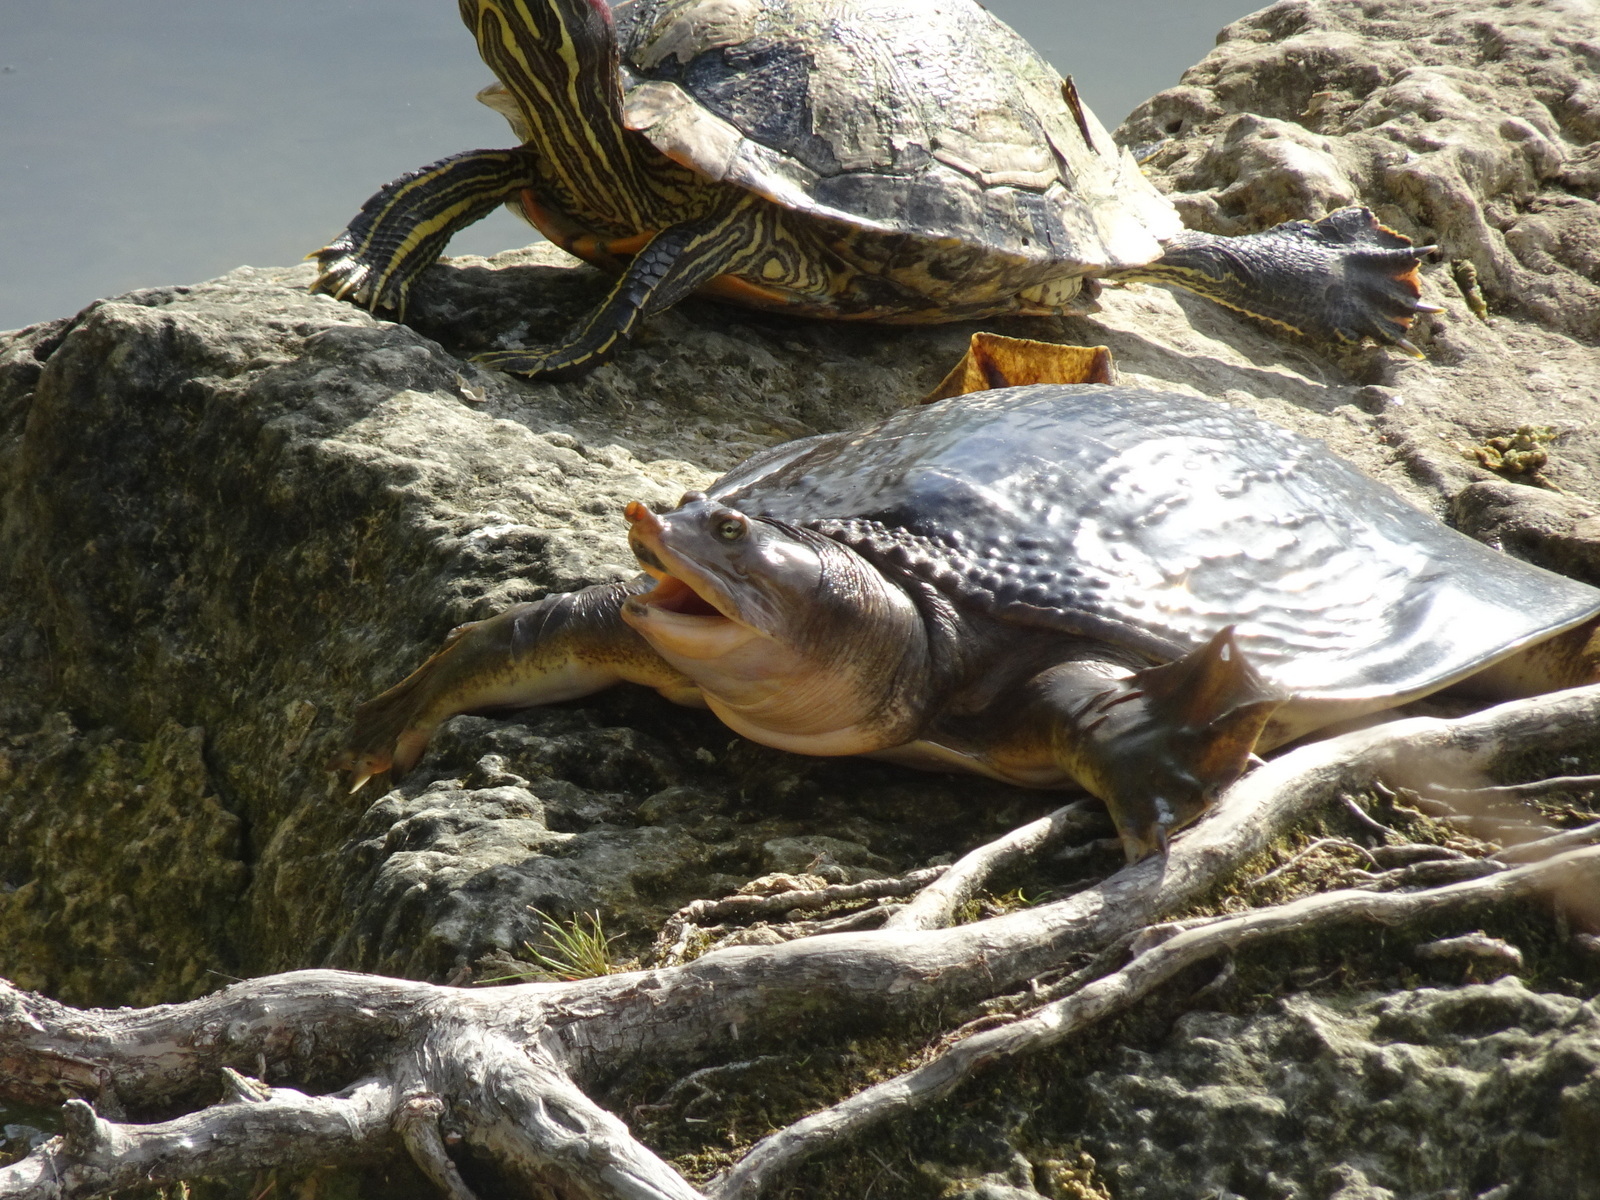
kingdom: Animalia
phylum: Chordata
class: Testudines
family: Trionychidae
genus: Apalone
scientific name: Apalone ferox
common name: Florida softshell turtle
